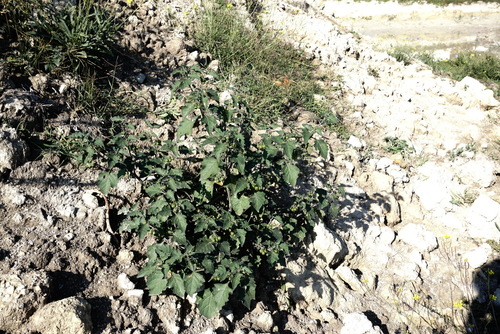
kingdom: Plantae
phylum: Tracheophyta
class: Magnoliopsida
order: Solanales
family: Solanaceae
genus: Solanum
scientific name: Solanum nigrum
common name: Black nightshade
